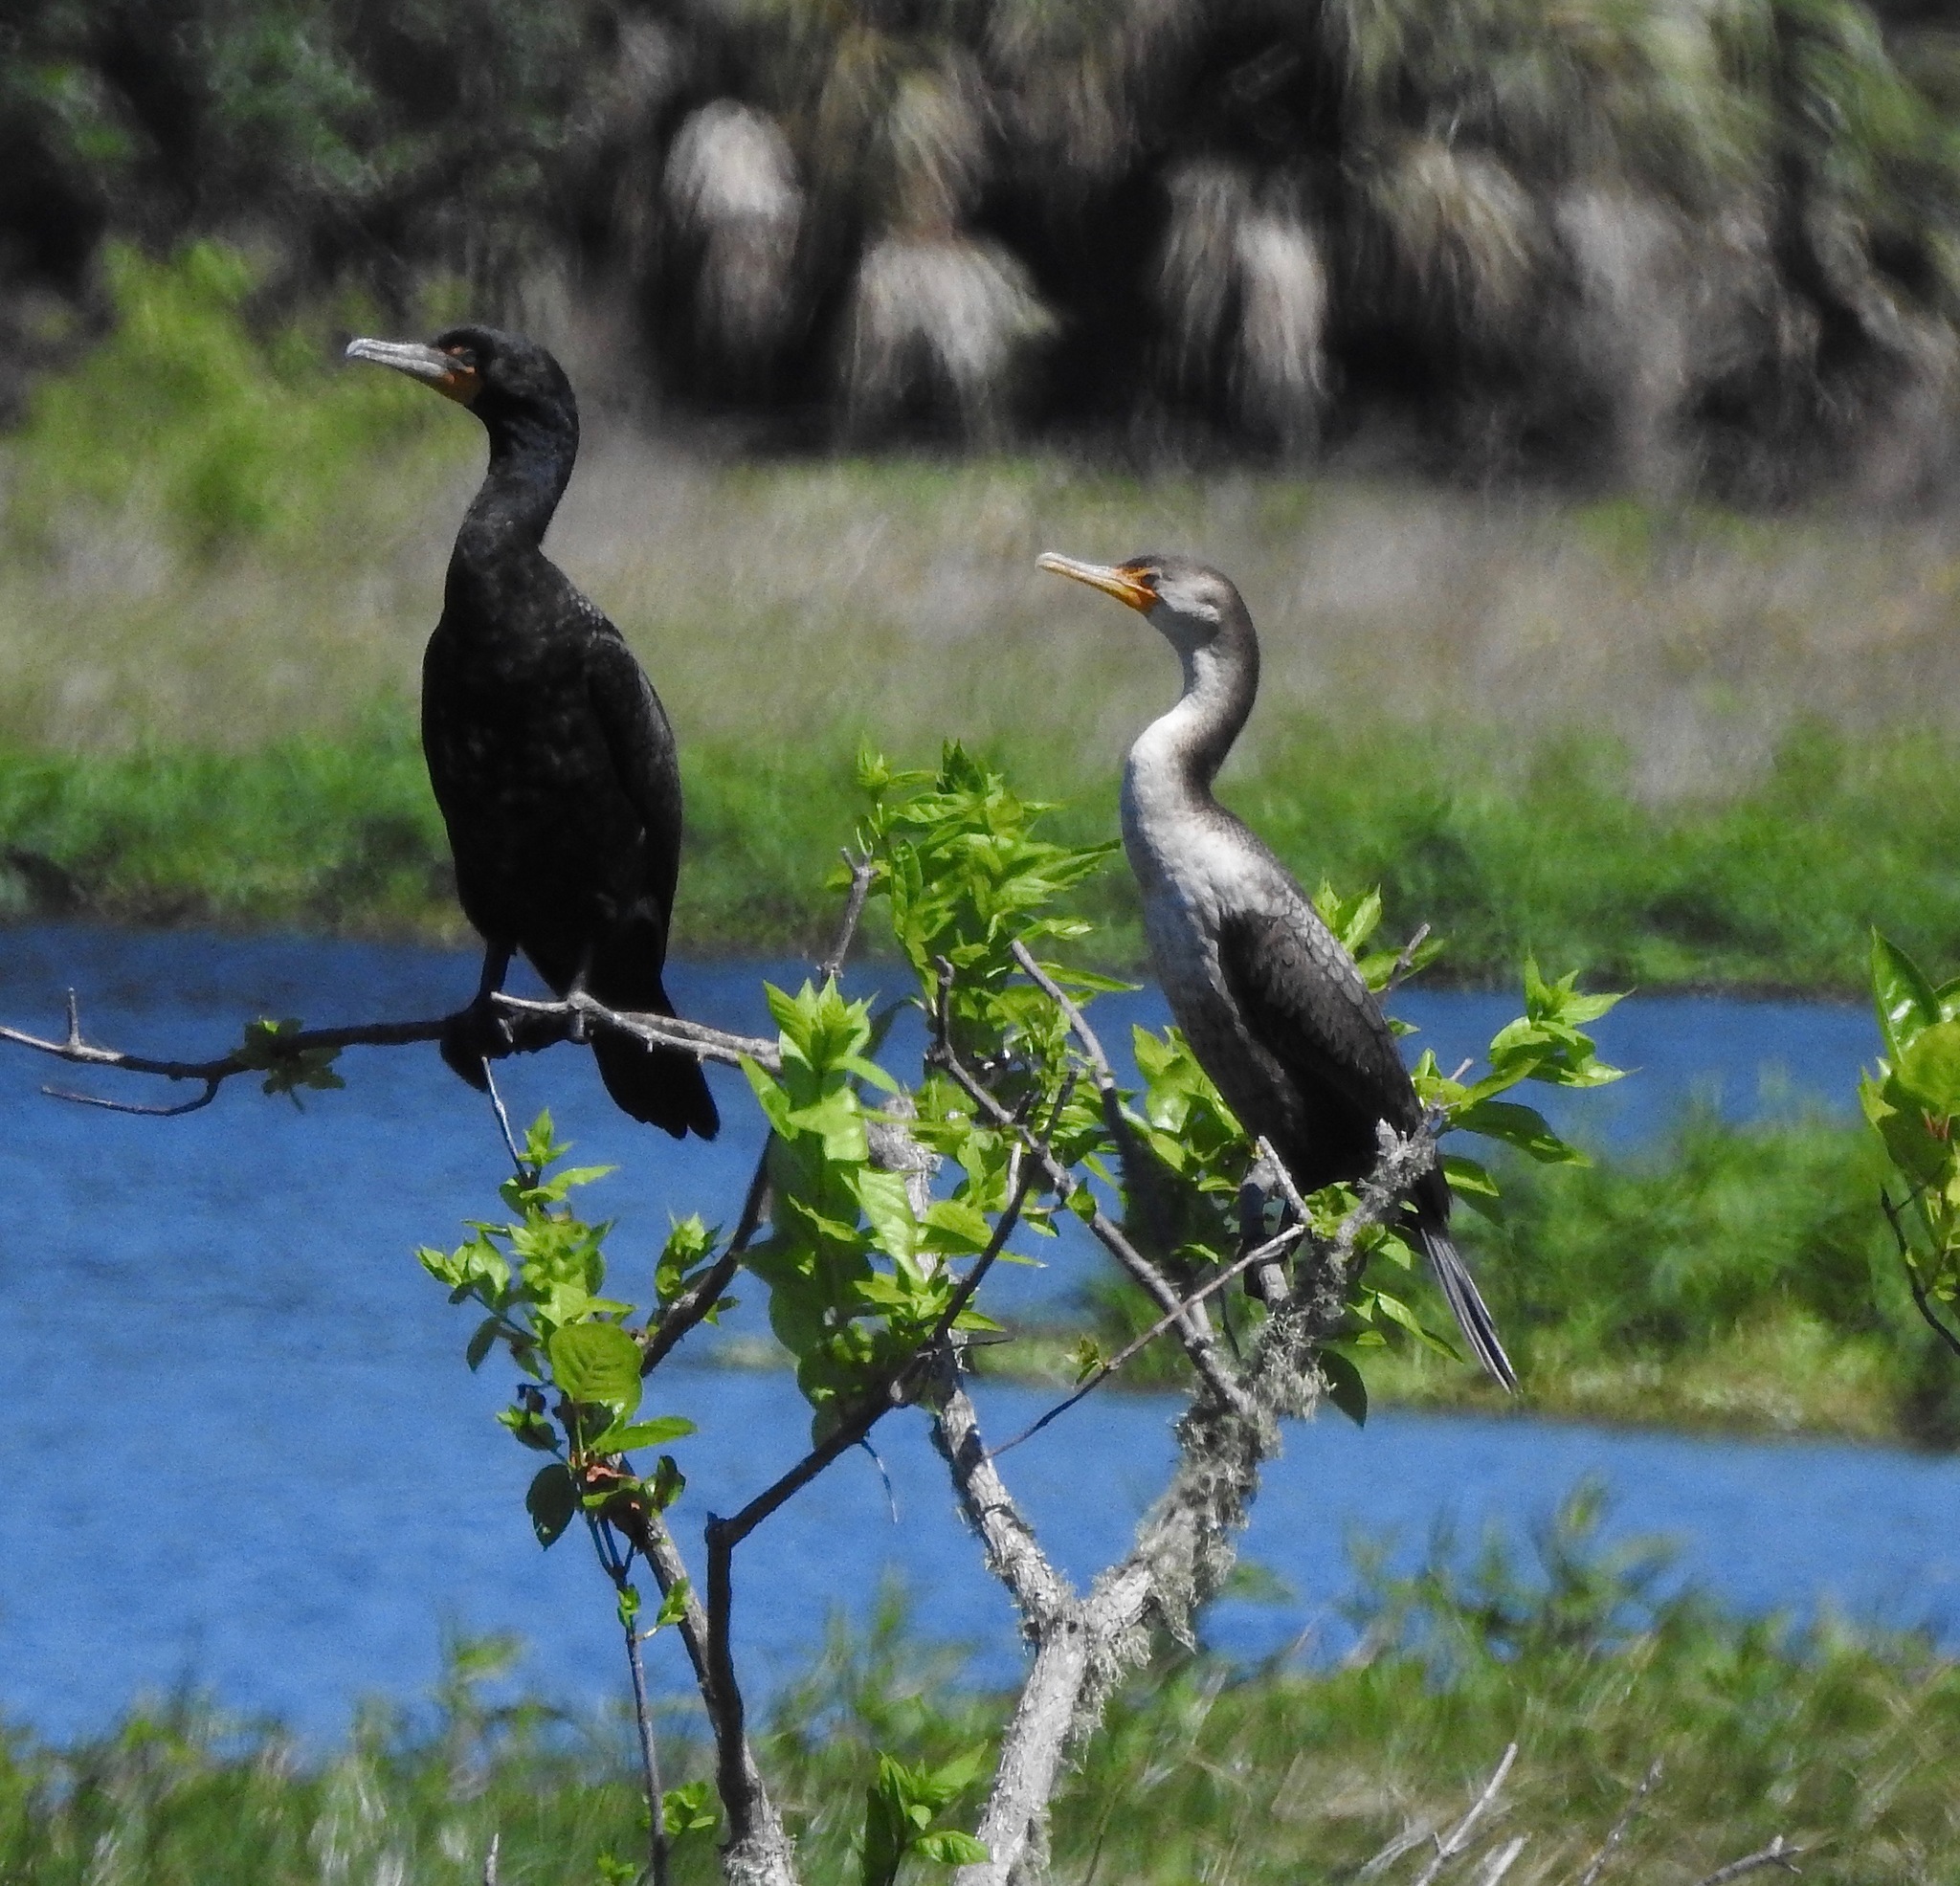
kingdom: Animalia
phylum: Chordata
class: Aves
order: Suliformes
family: Phalacrocoracidae
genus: Phalacrocorax
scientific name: Phalacrocorax auritus
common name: Double-crested cormorant
